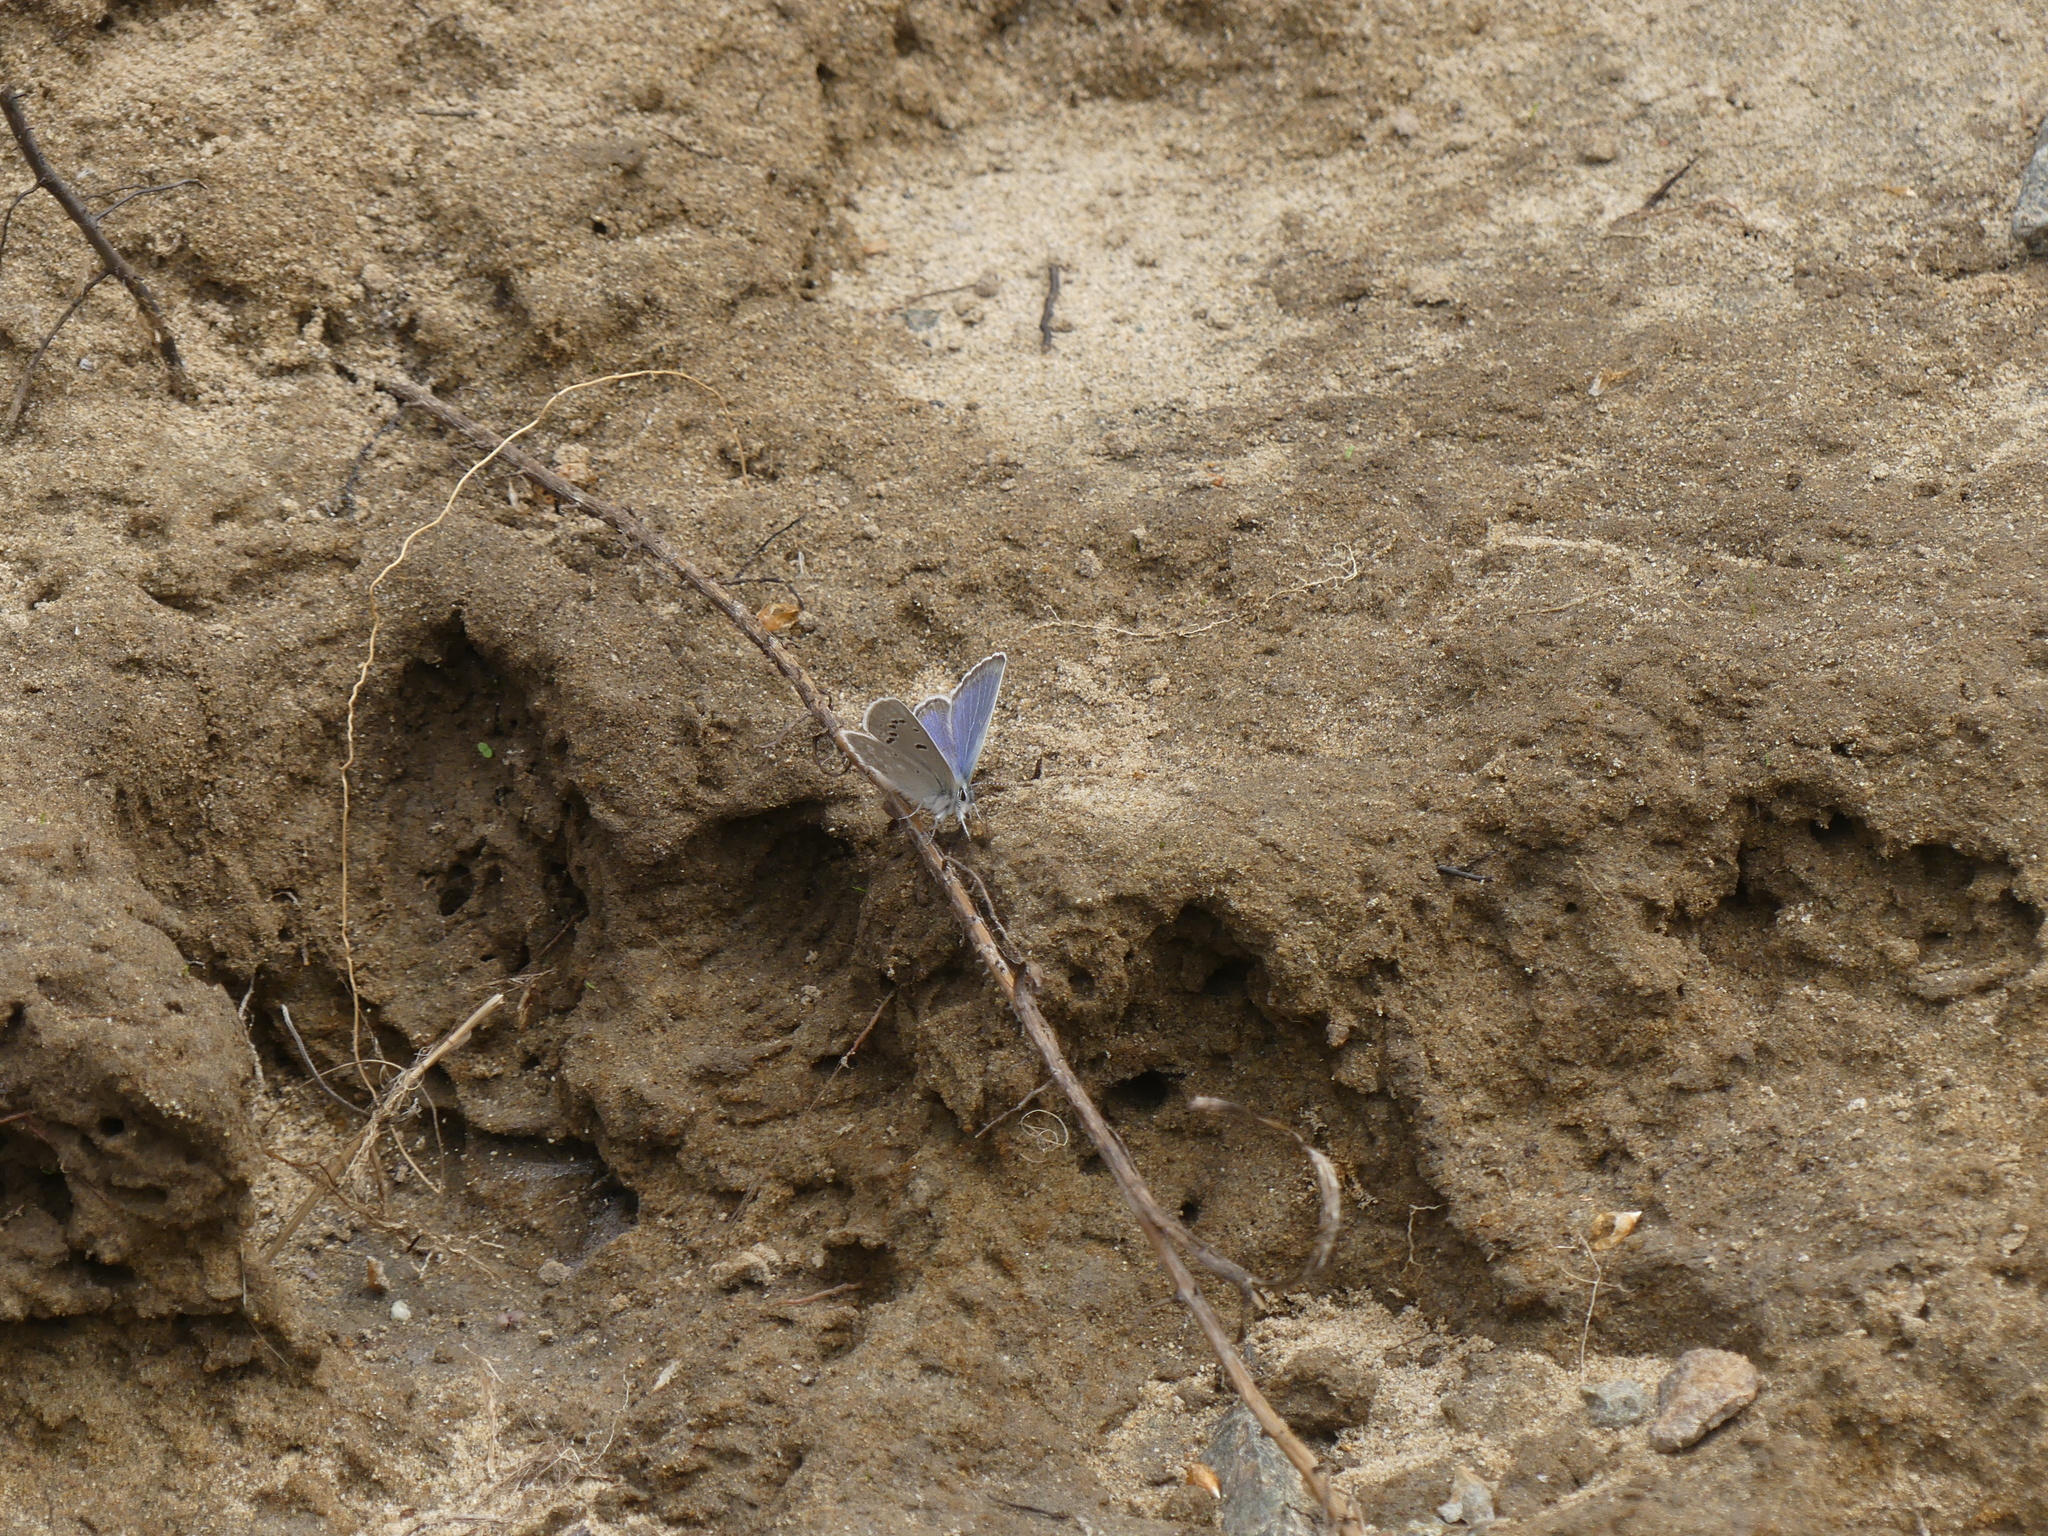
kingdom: Animalia
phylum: Arthropoda
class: Insecta
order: Lepidoptera
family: Lycaenidae
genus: Icaricia
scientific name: Icaricia icarioides
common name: Boisduval's blue
